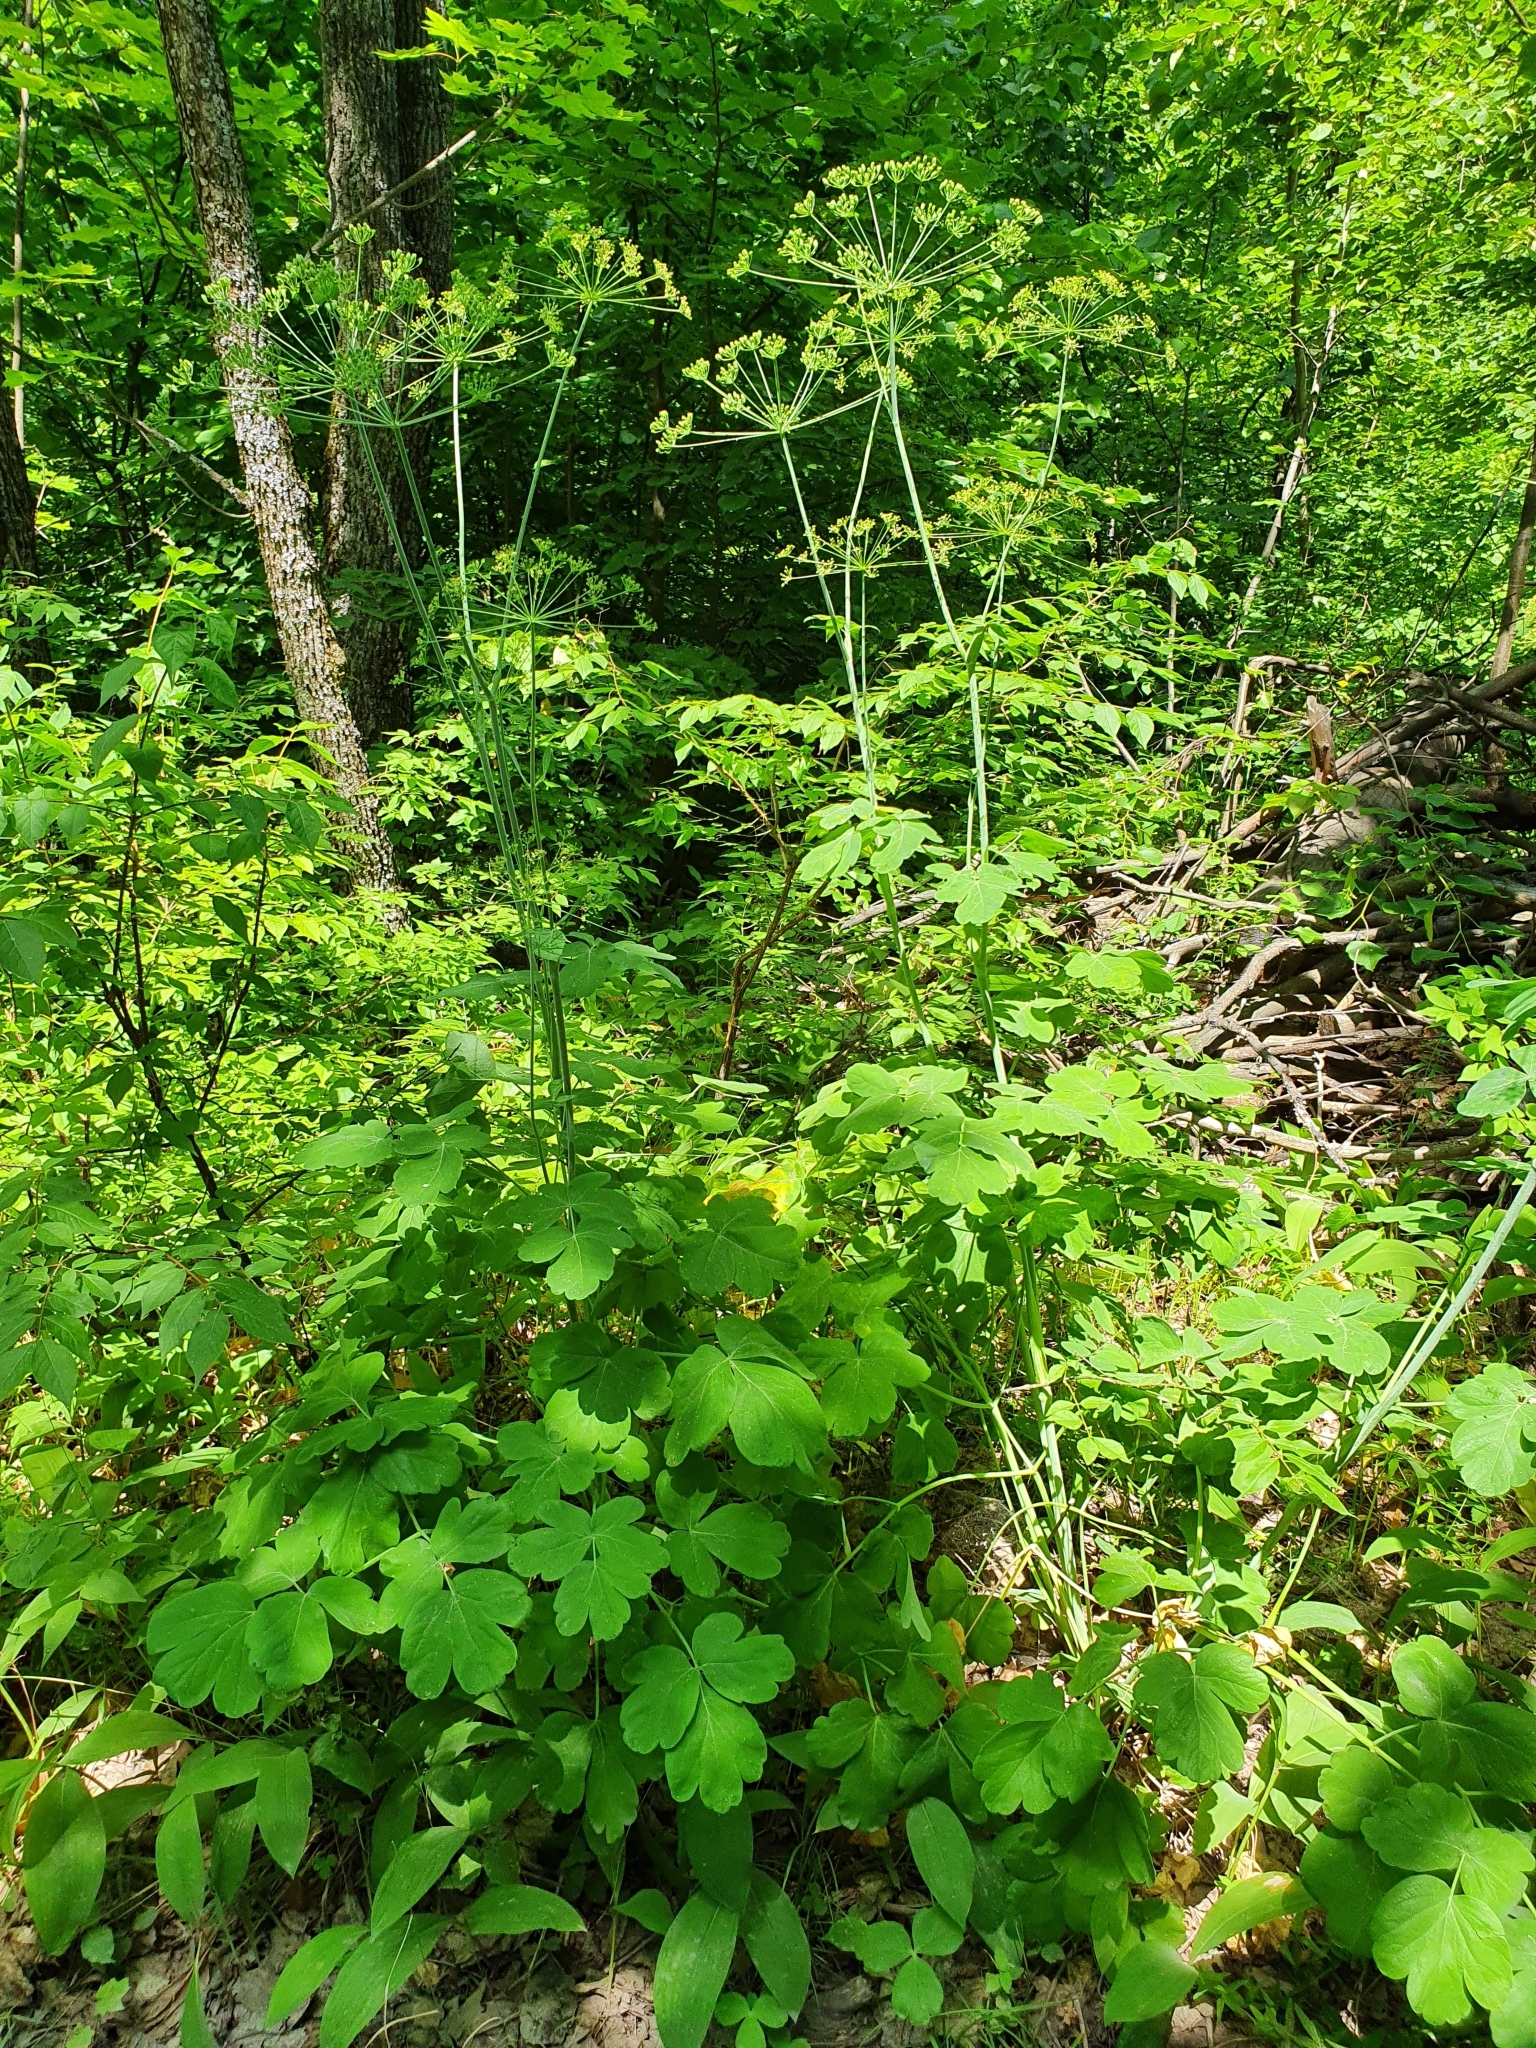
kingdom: Plantae
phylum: Tracheophyta
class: Magnoliopsida
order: Apiales
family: Apiaceae
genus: Laser
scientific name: Laser trilobum
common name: Laser
